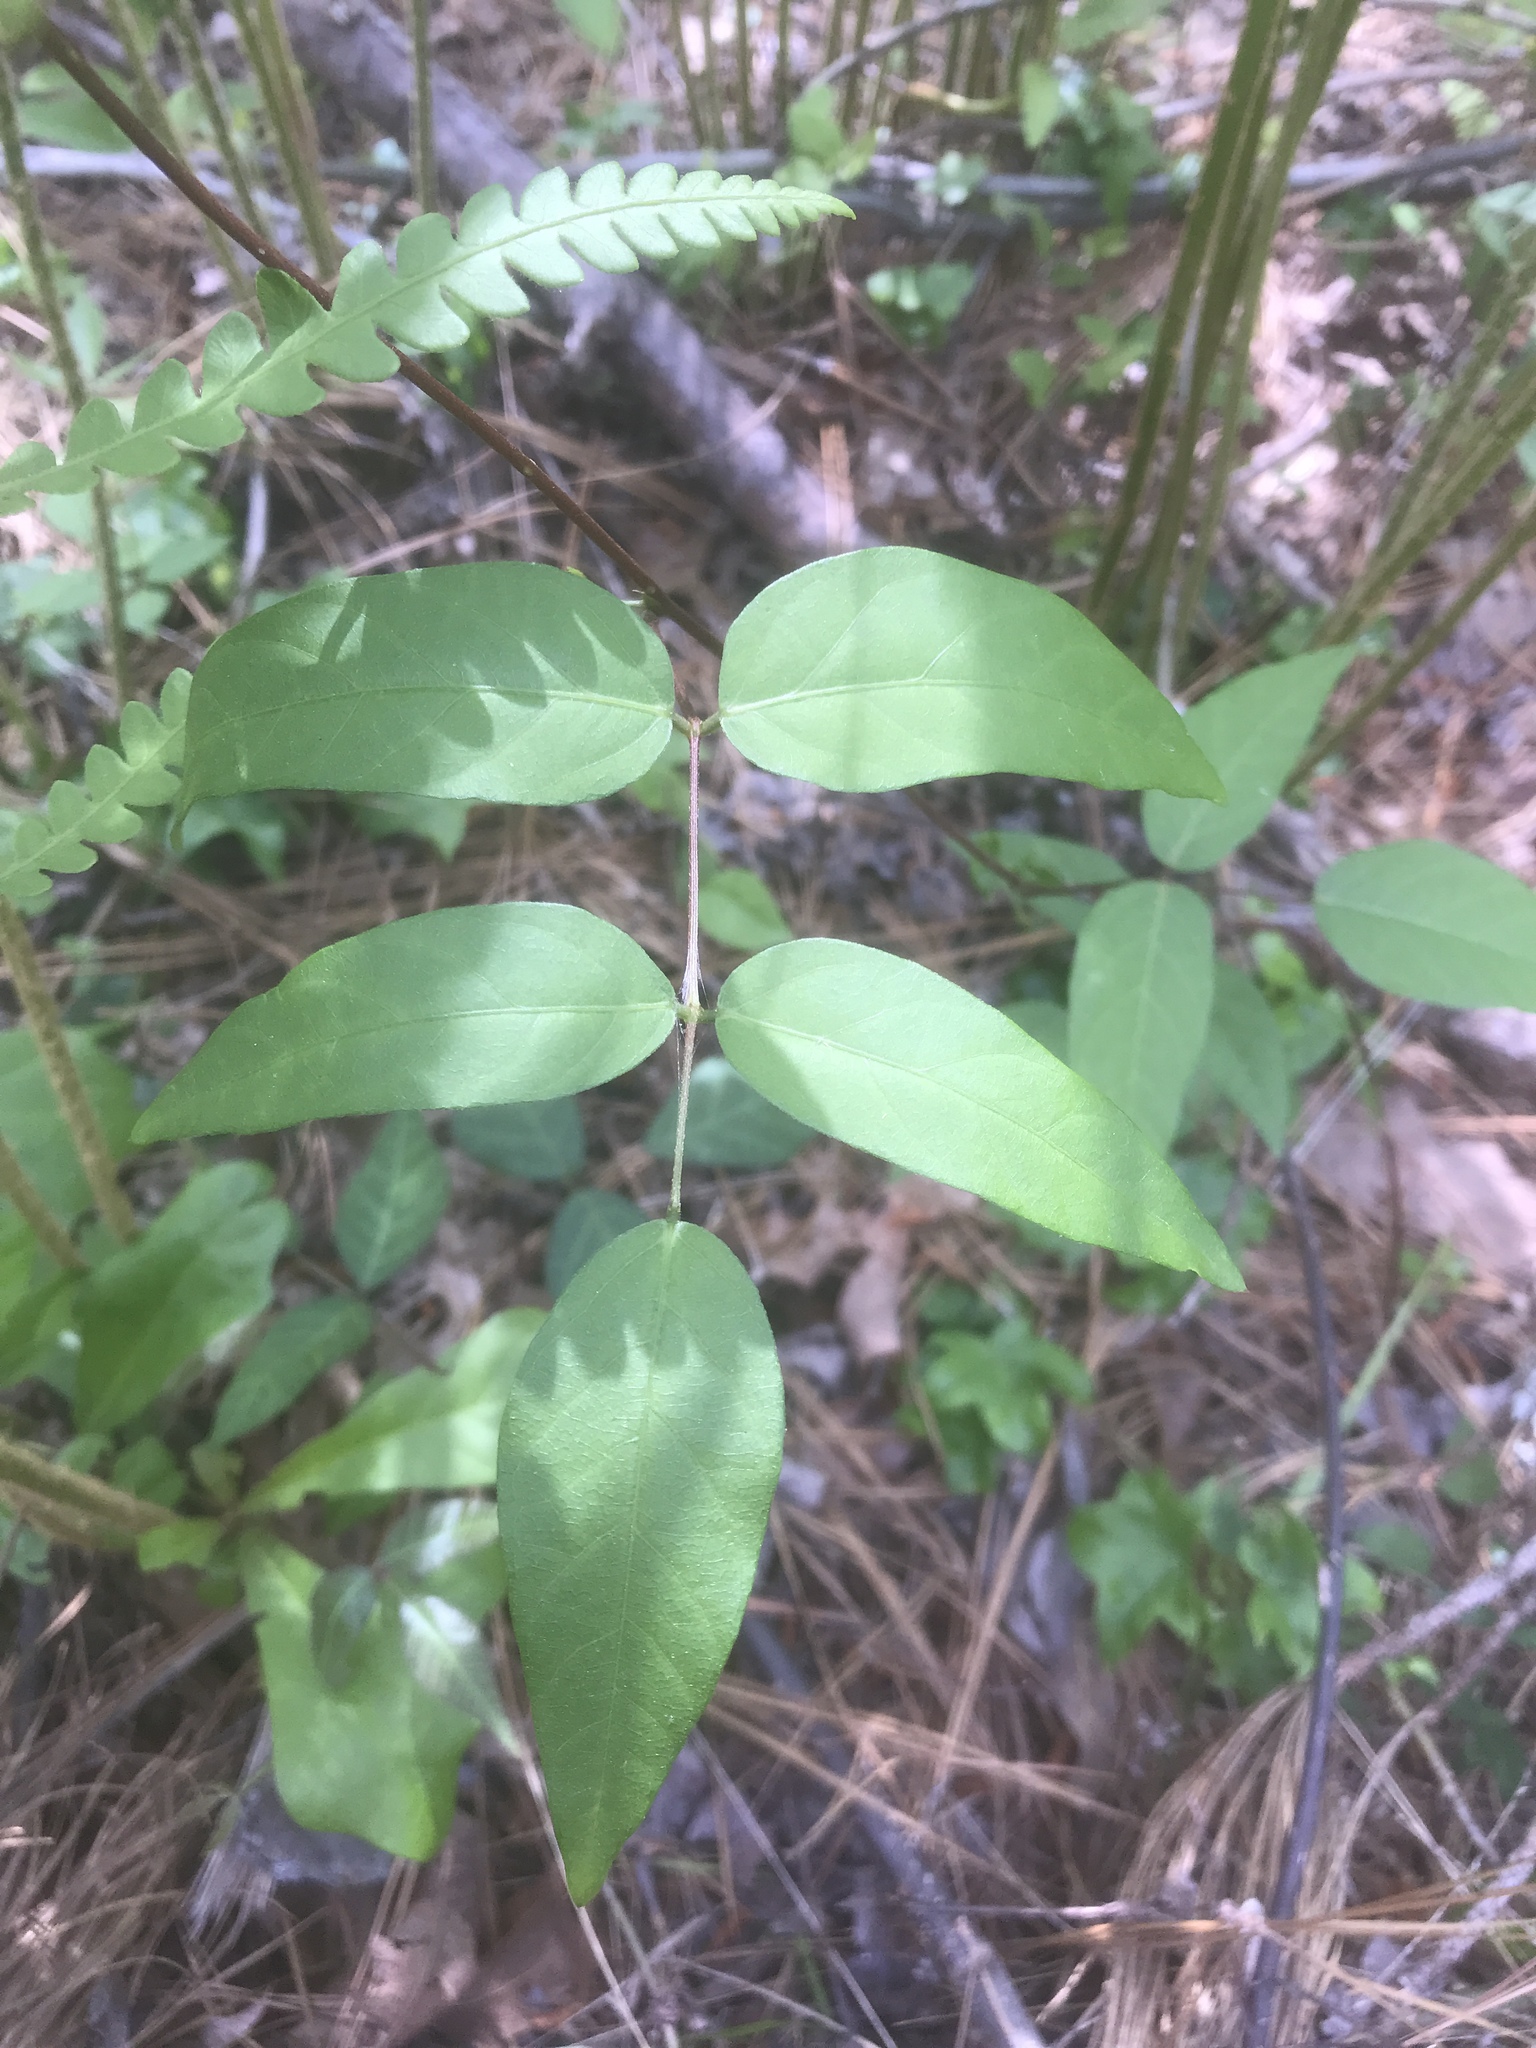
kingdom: Plantae
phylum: Tracheophyta
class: Magnoliopsida
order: Fabales
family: Fabaceae
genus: Apios
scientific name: Apios americana
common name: American potato-bean
